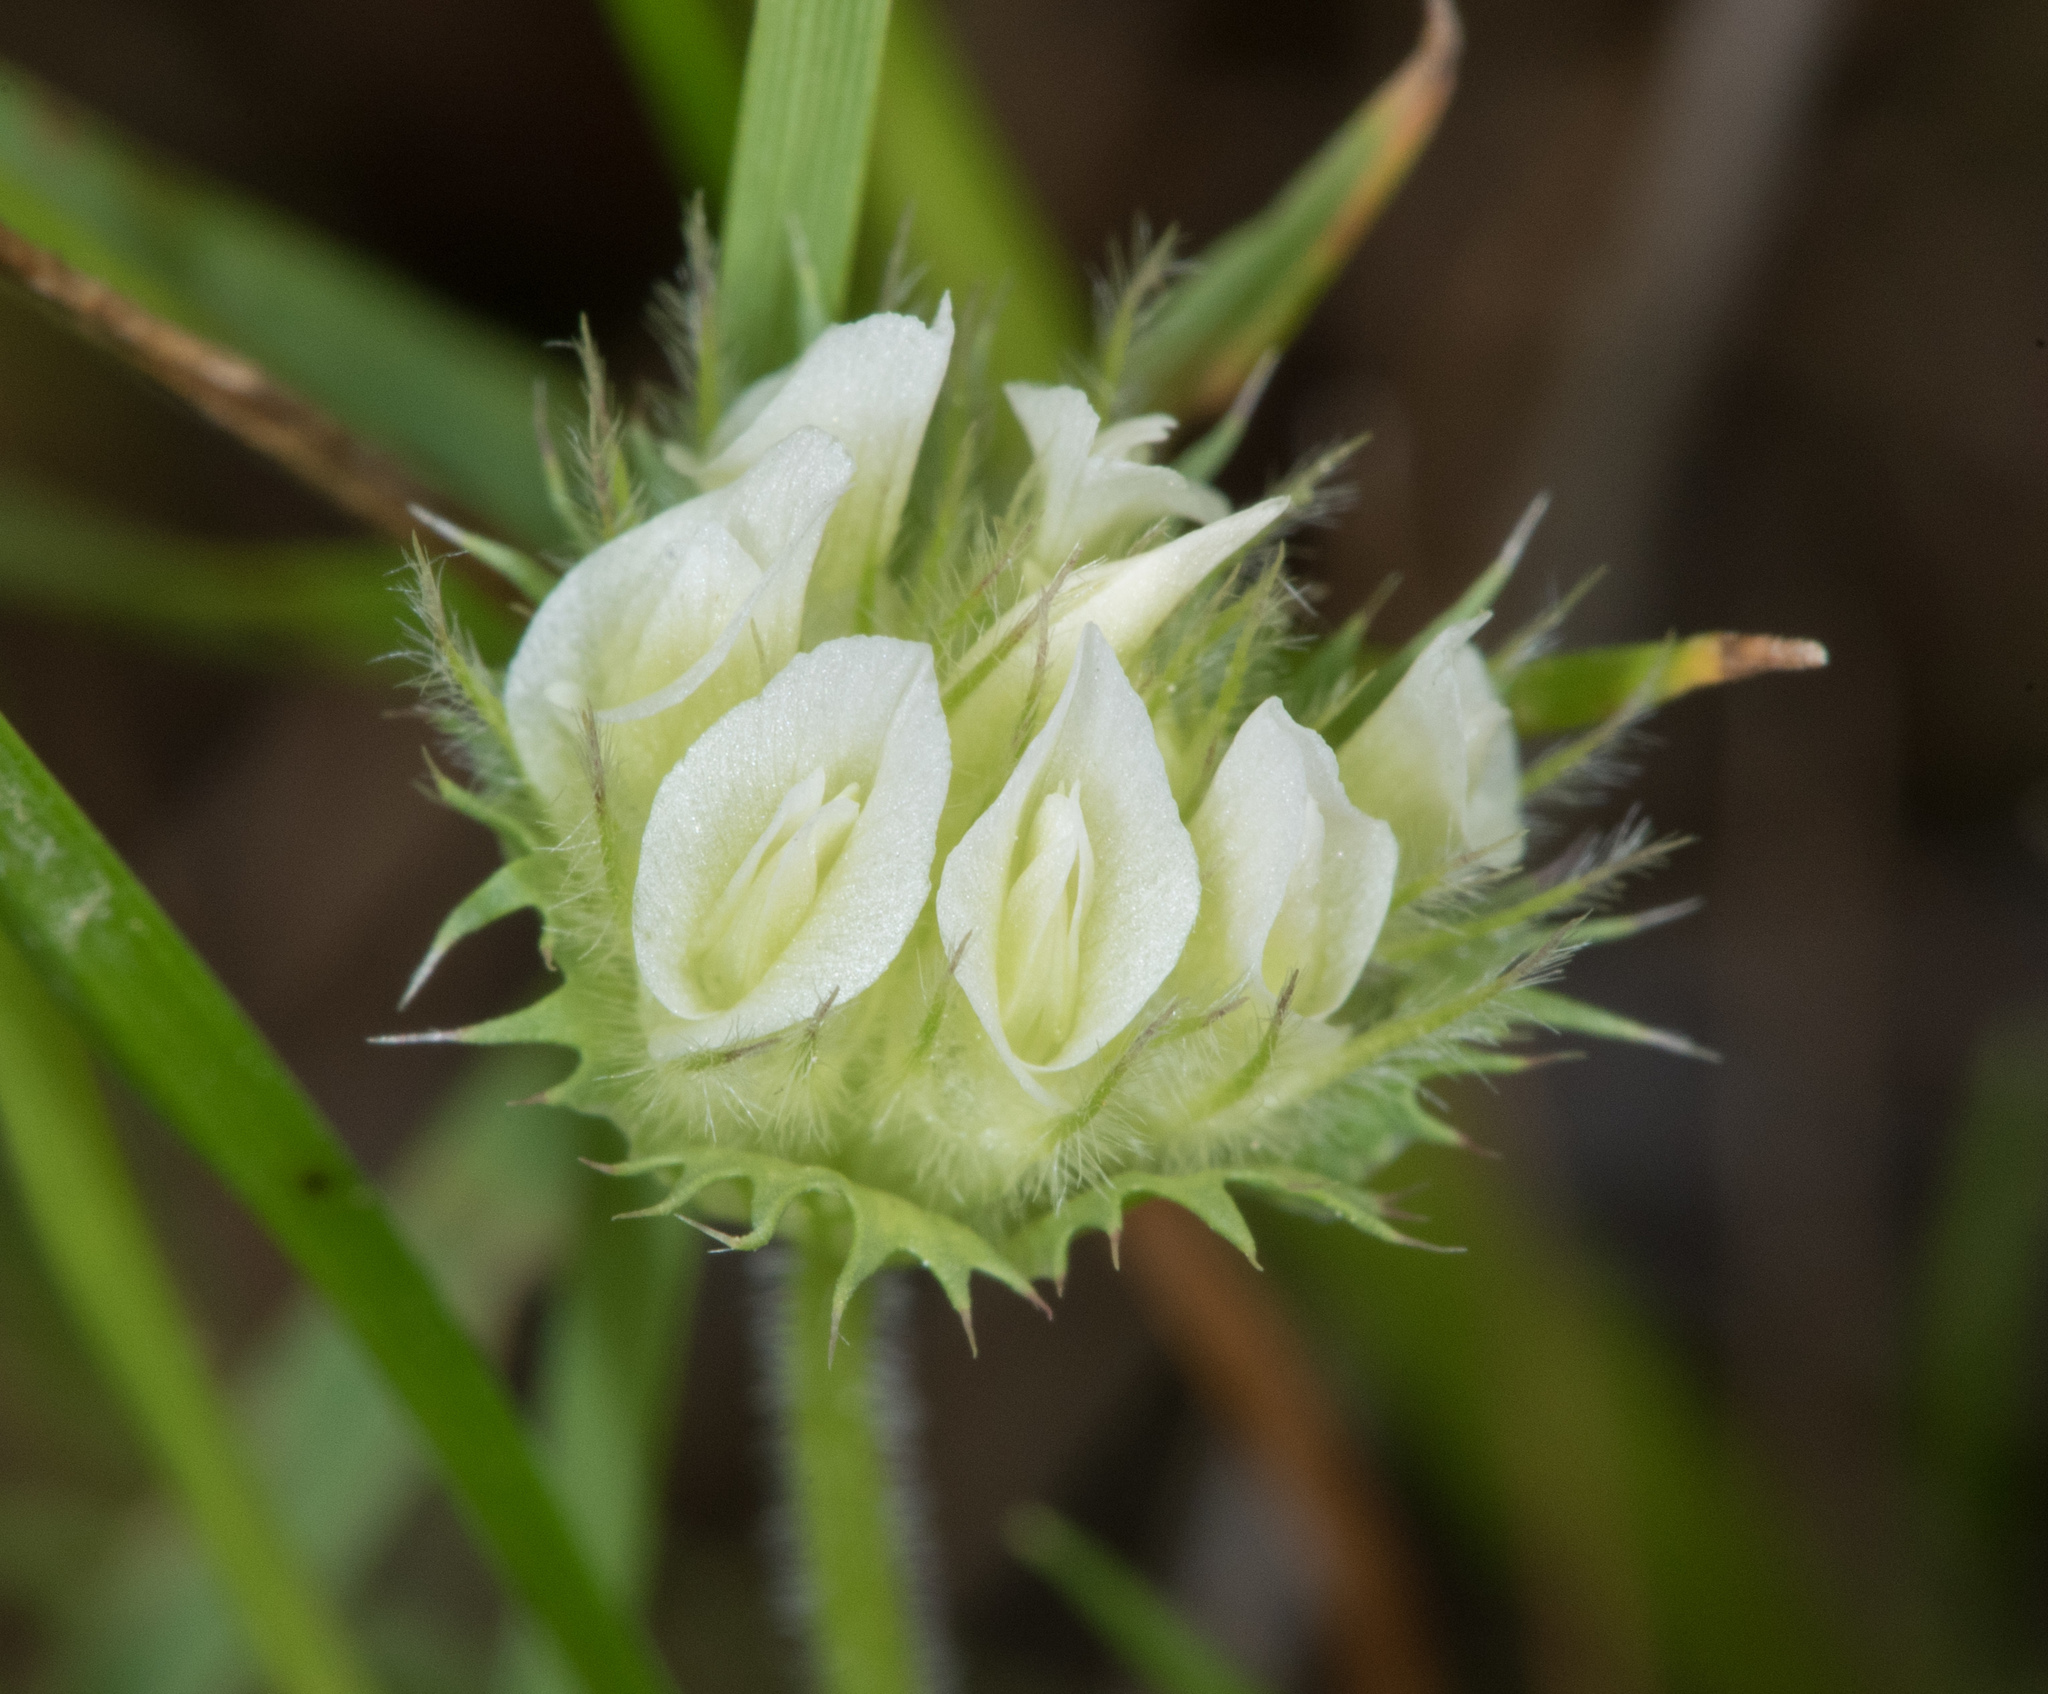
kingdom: Plantae
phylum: Tracheophyta
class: Magnoliopsida
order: Fabales
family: Fabaceae
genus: Trifolium
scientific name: Trifolium barbigerum
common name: Bearded clover
